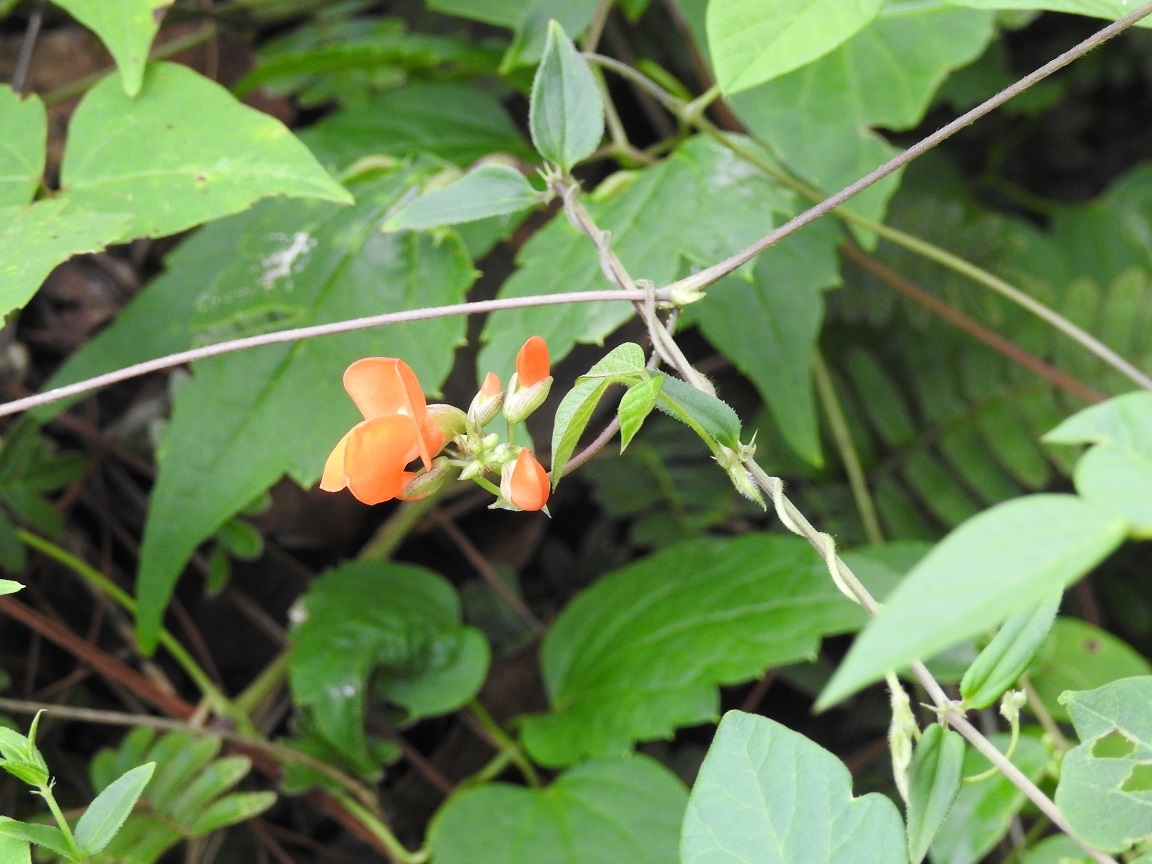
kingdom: Plantae
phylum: Tracheophyta
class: Magnoliopsida
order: Fabales
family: Fabaceae
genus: Phaseolus
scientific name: Phaseolus coccineus
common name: Runner bean
